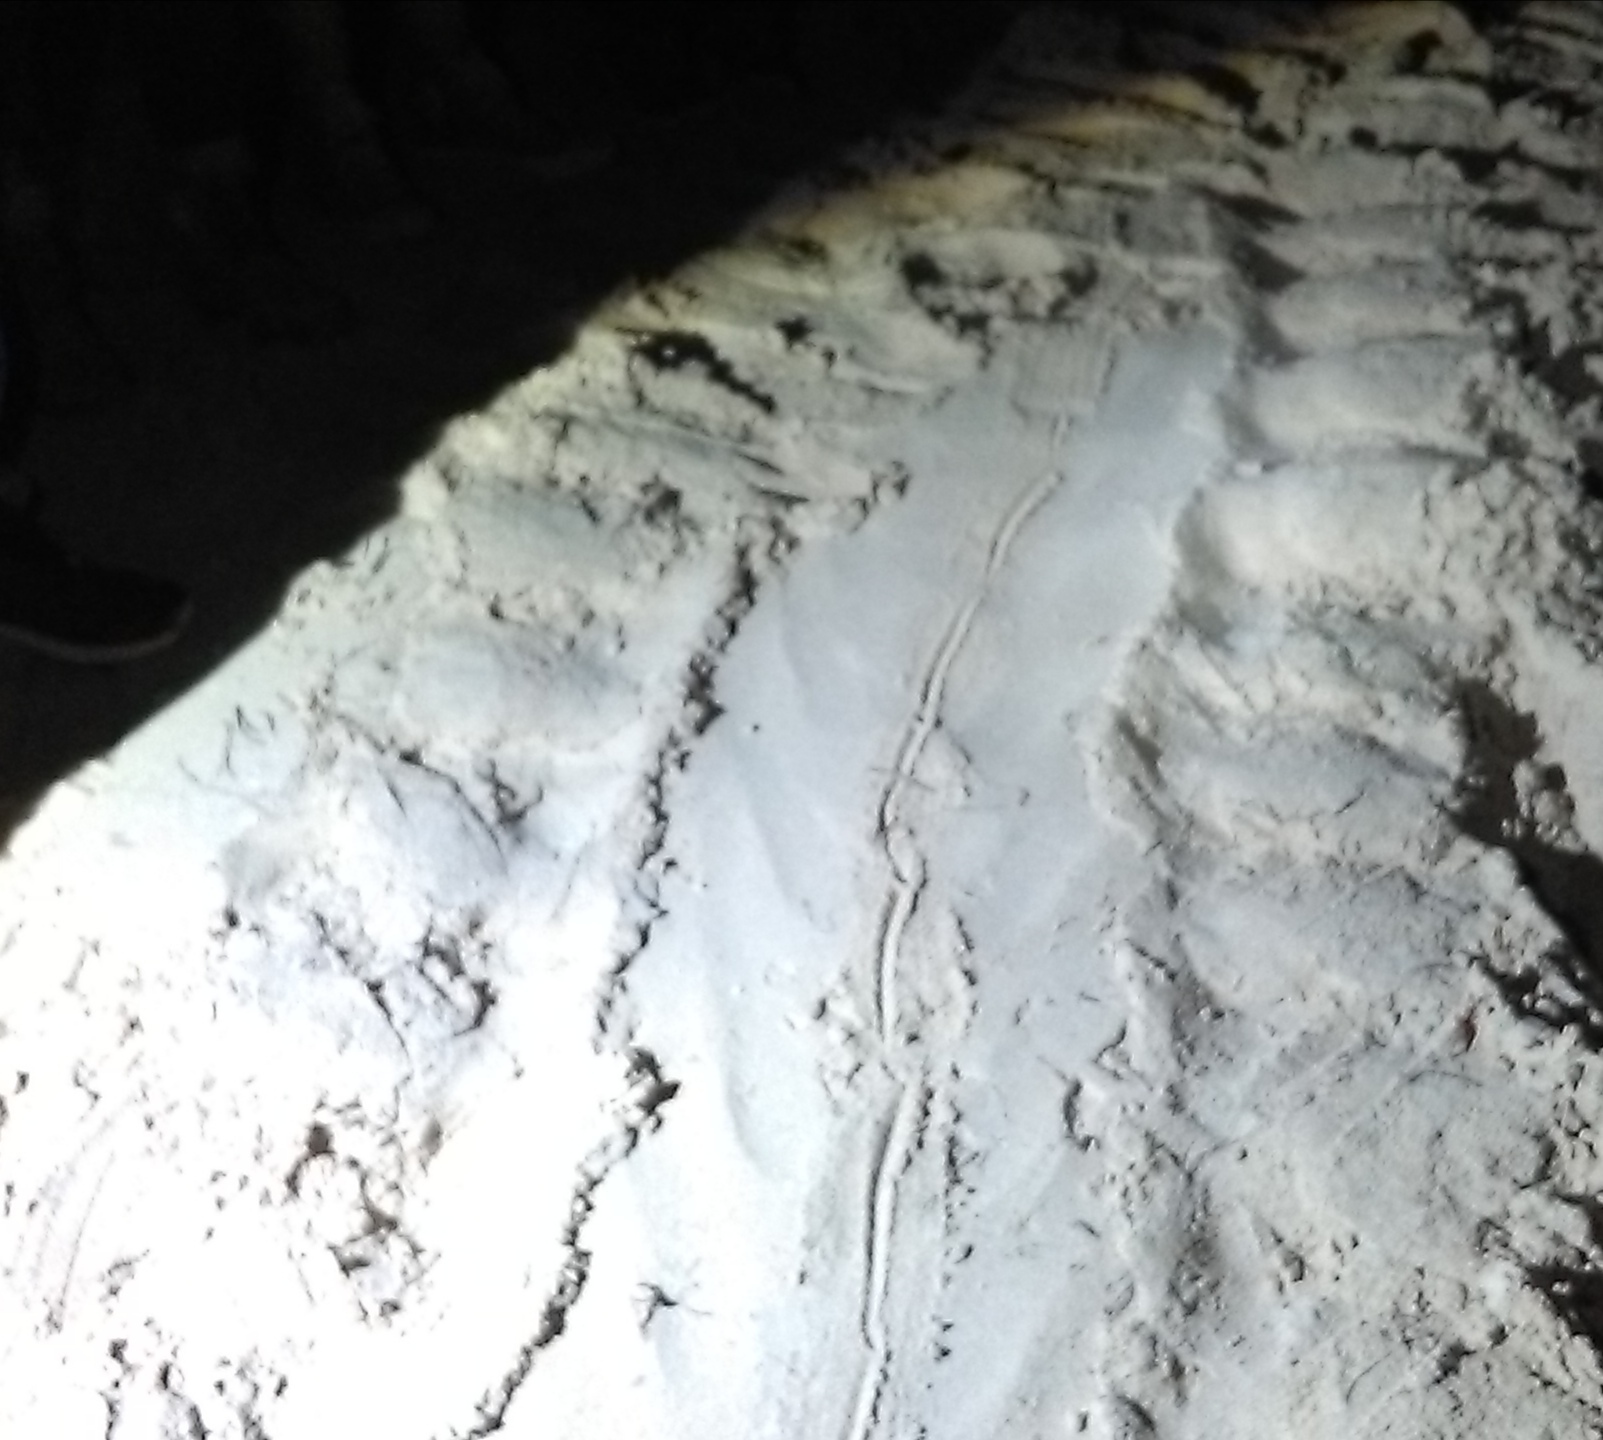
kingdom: Animalia
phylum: Chordata
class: Testudines
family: Cheloniidae
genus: Chelonia
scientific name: Chelonia mydas
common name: Green turtle
